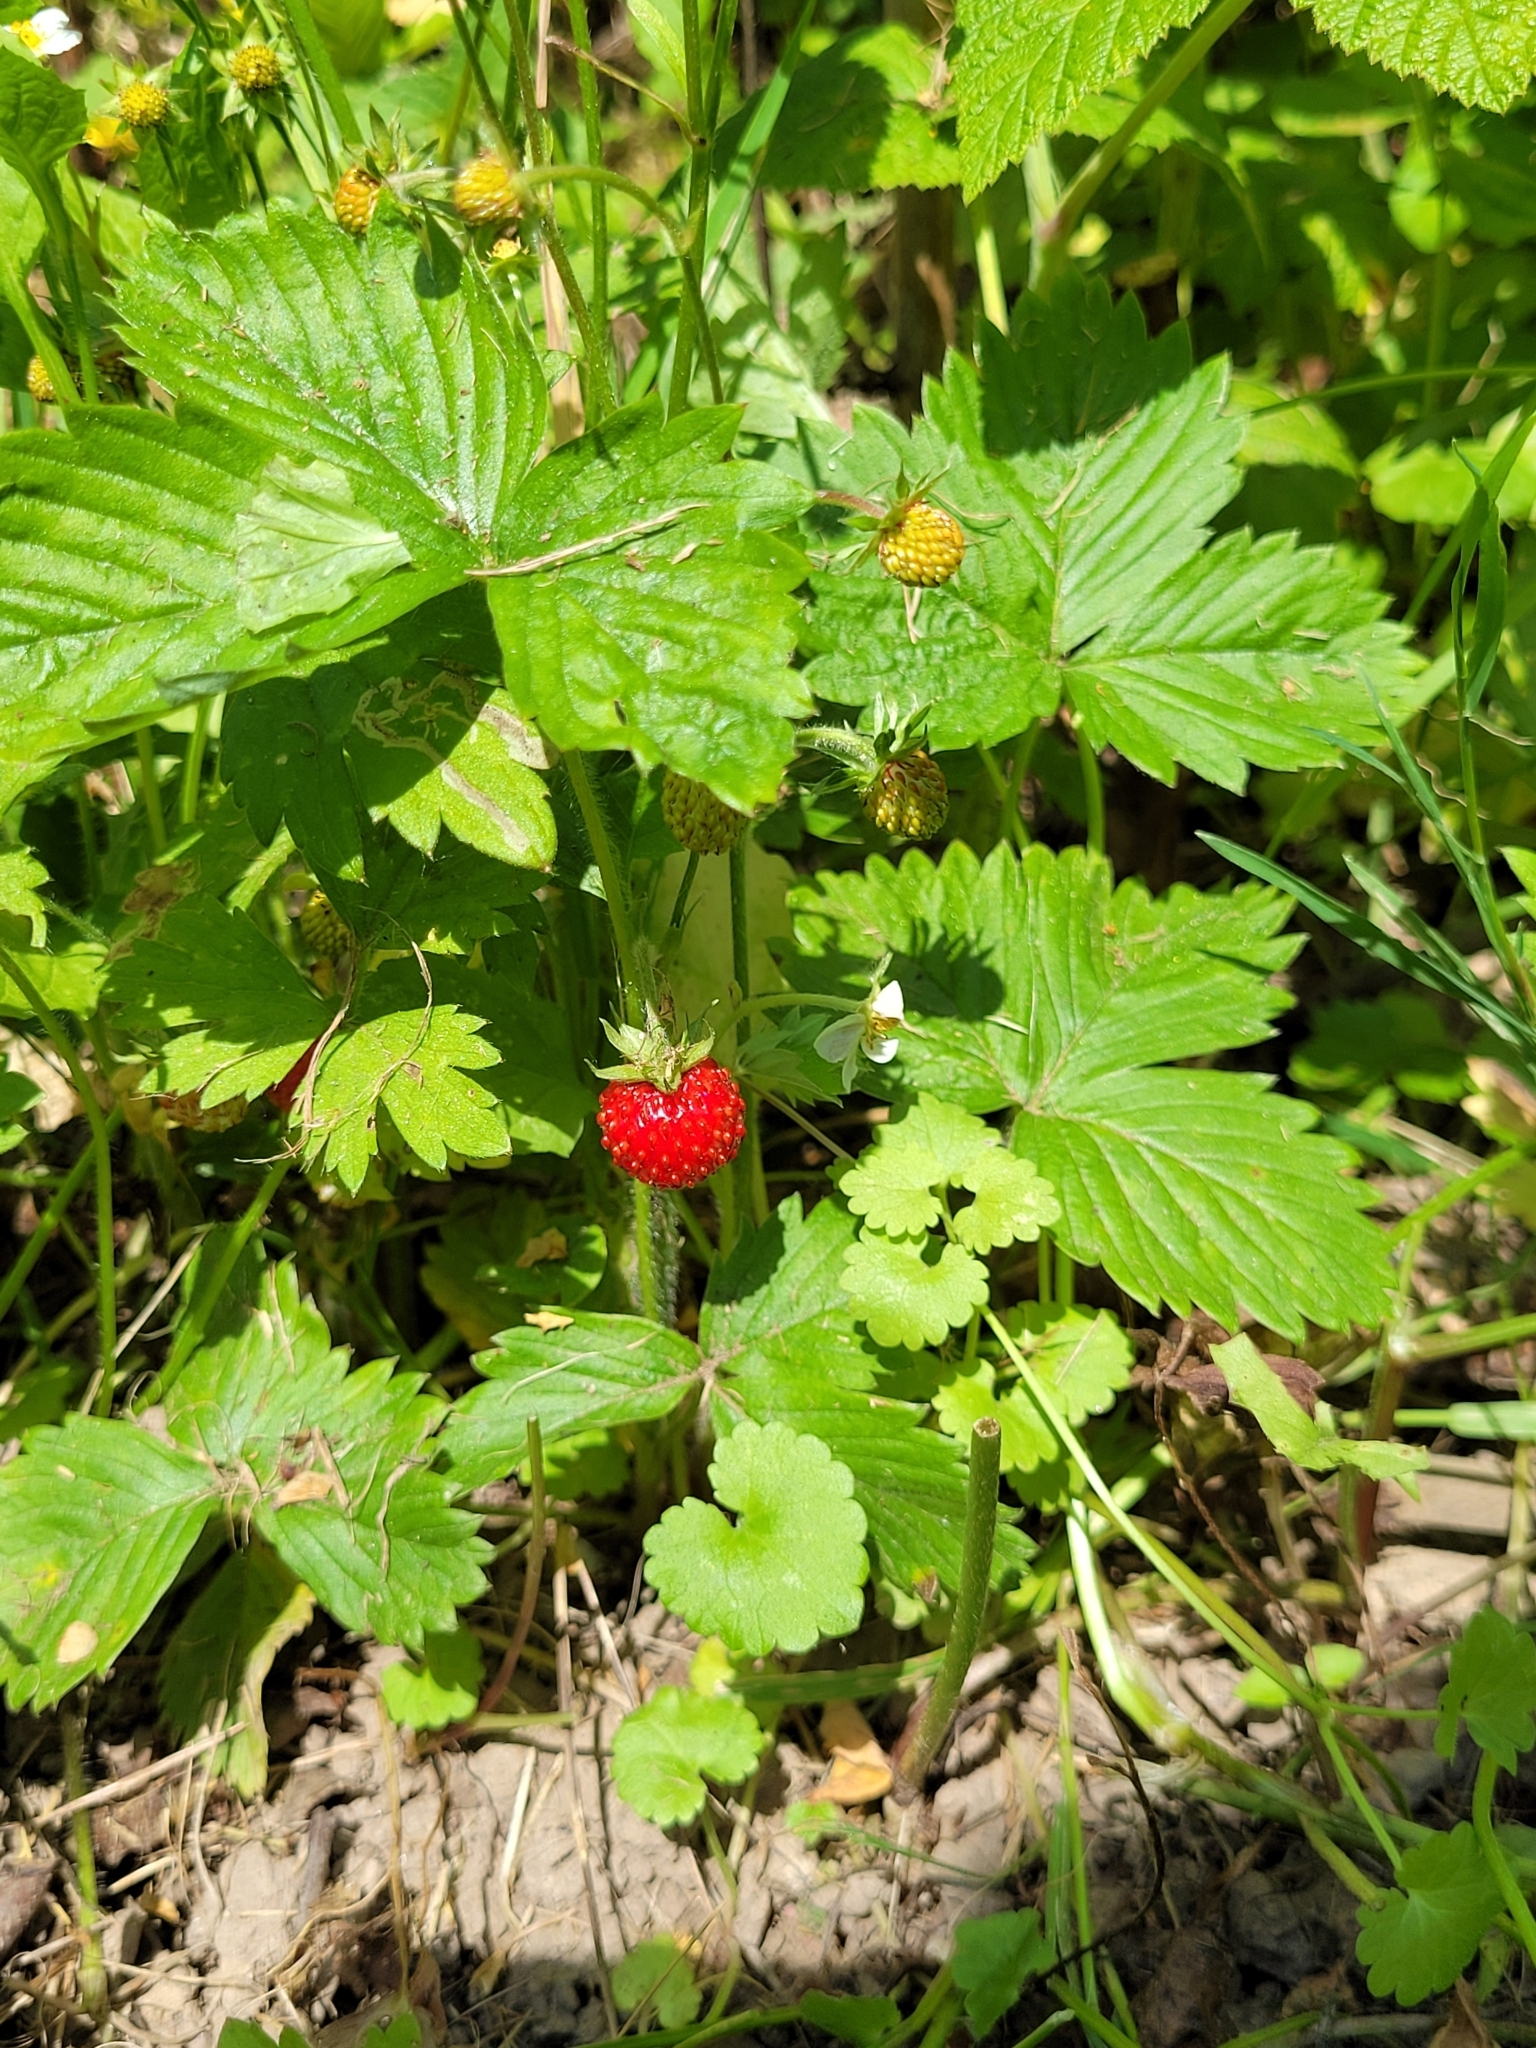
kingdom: Plantae
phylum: Tracheophyta
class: Magnoliopsida
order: Rosales
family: Rosaceae
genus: Fragaria
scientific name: Fragaria vesca
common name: Wild strawberry
